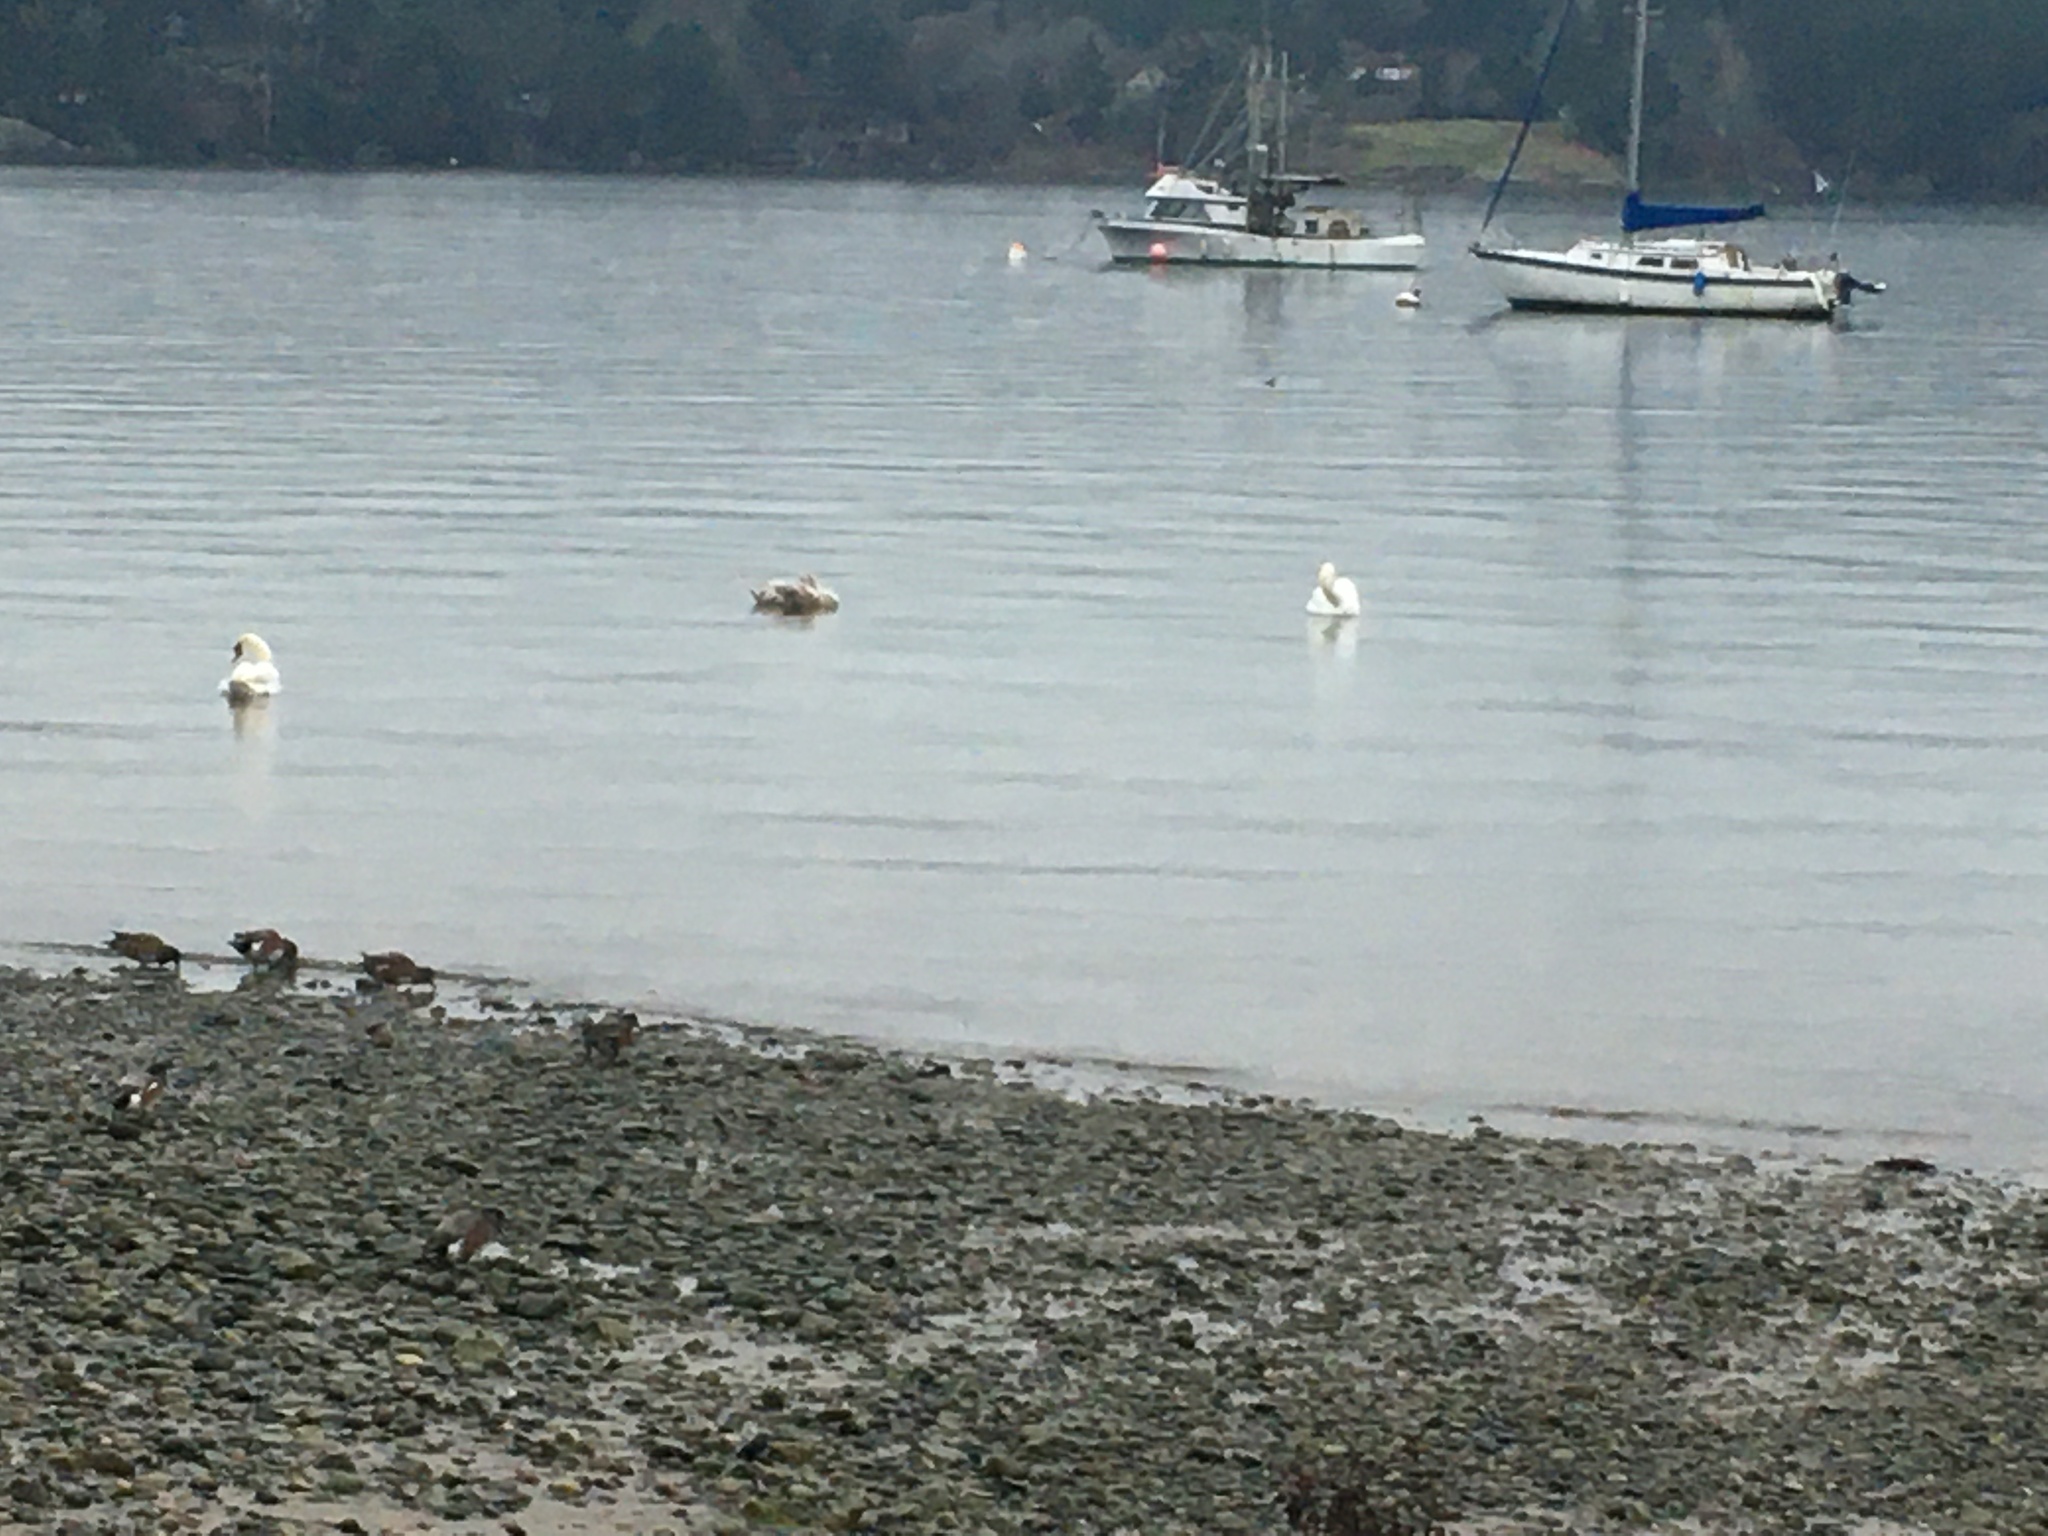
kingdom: Animalia
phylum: Chordata
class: Aves
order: Anseriformes
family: Anatidae
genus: Cygnus
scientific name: Cygnus olor
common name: Mute swan
